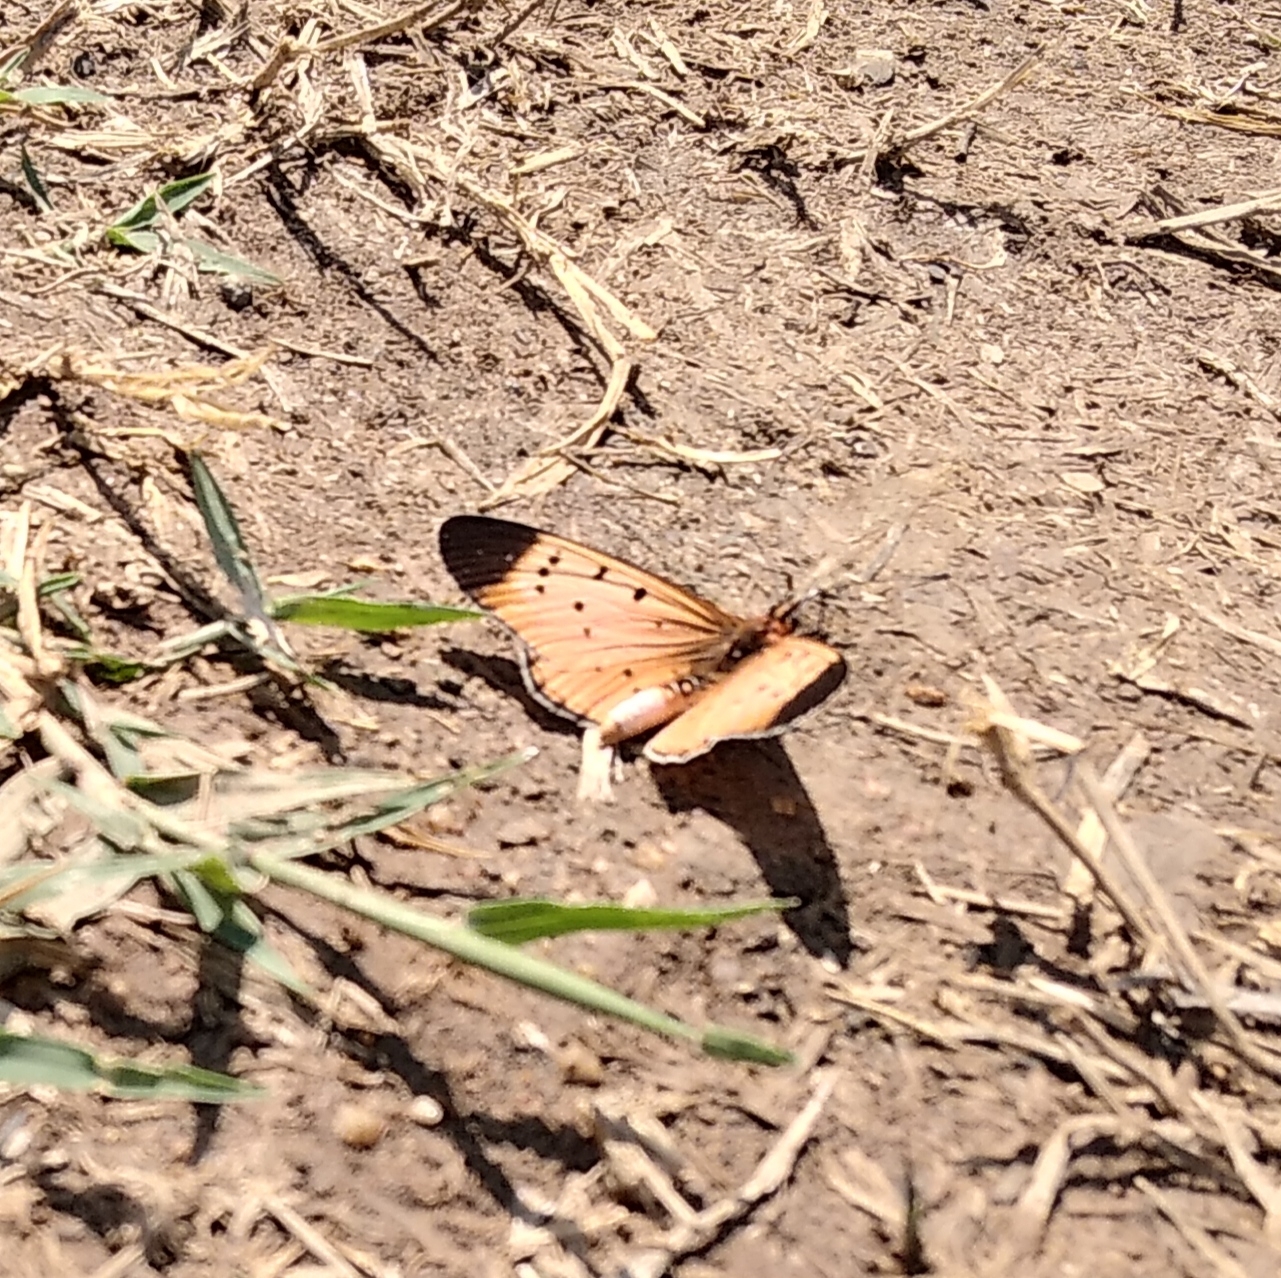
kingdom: Animalia
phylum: Arthropoda
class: Insecta
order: Lepidoptera
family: Nymphalidae
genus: Stephenia
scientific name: Stephenia
